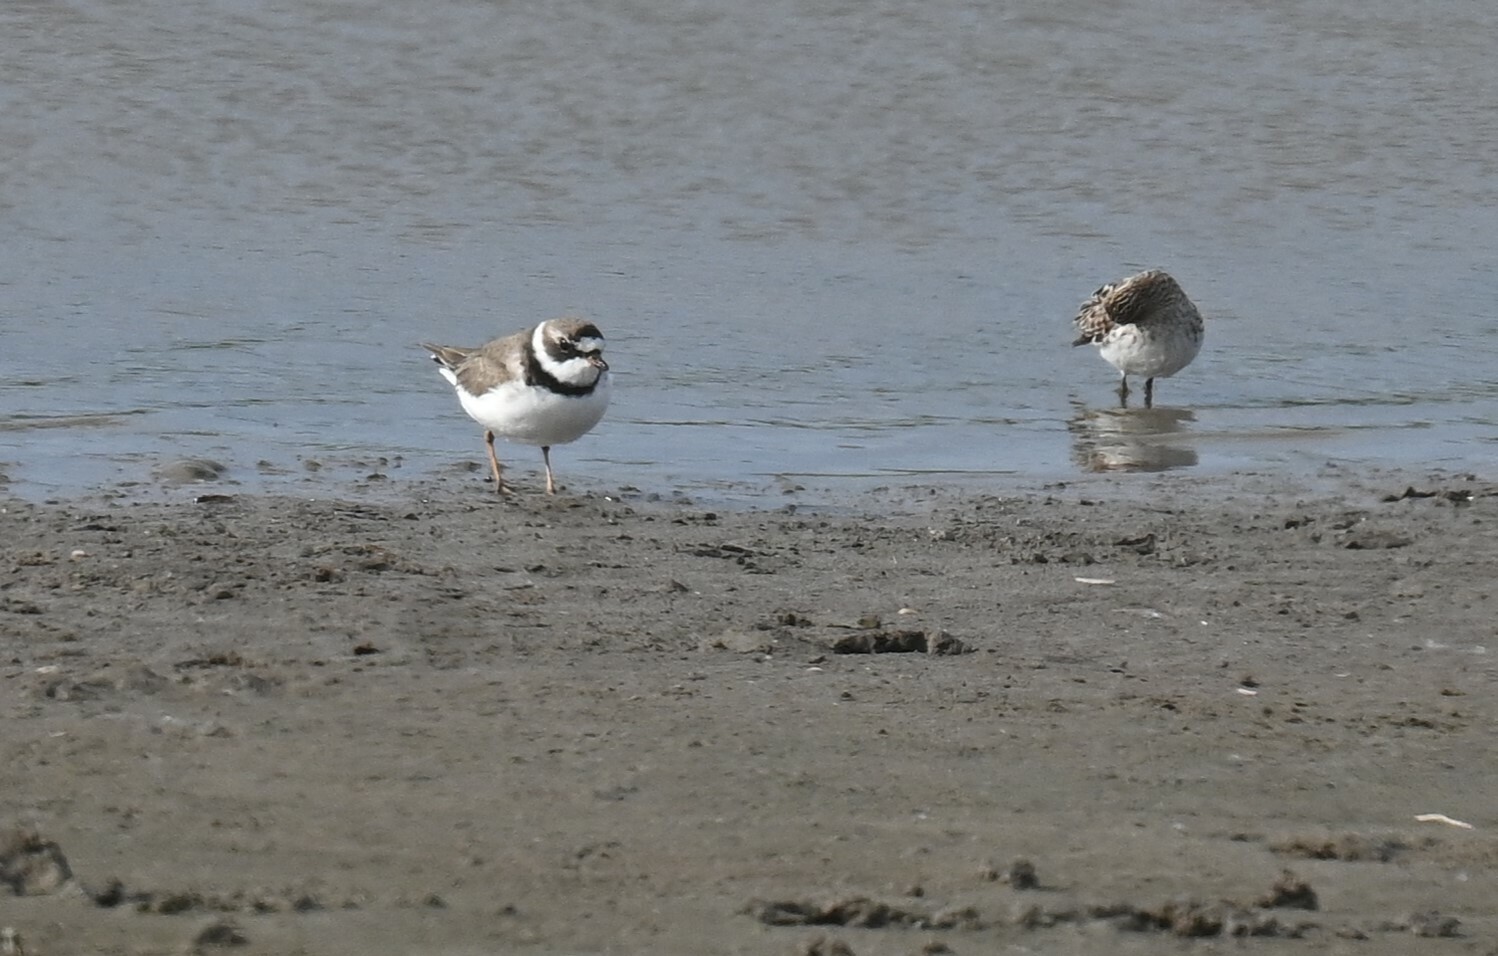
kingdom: Animalia
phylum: Chordata
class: Aves
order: Charadriiformes
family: Charadriidae
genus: Charadrius
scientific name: Charadrius semipalmatus
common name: Semipalmated plover
